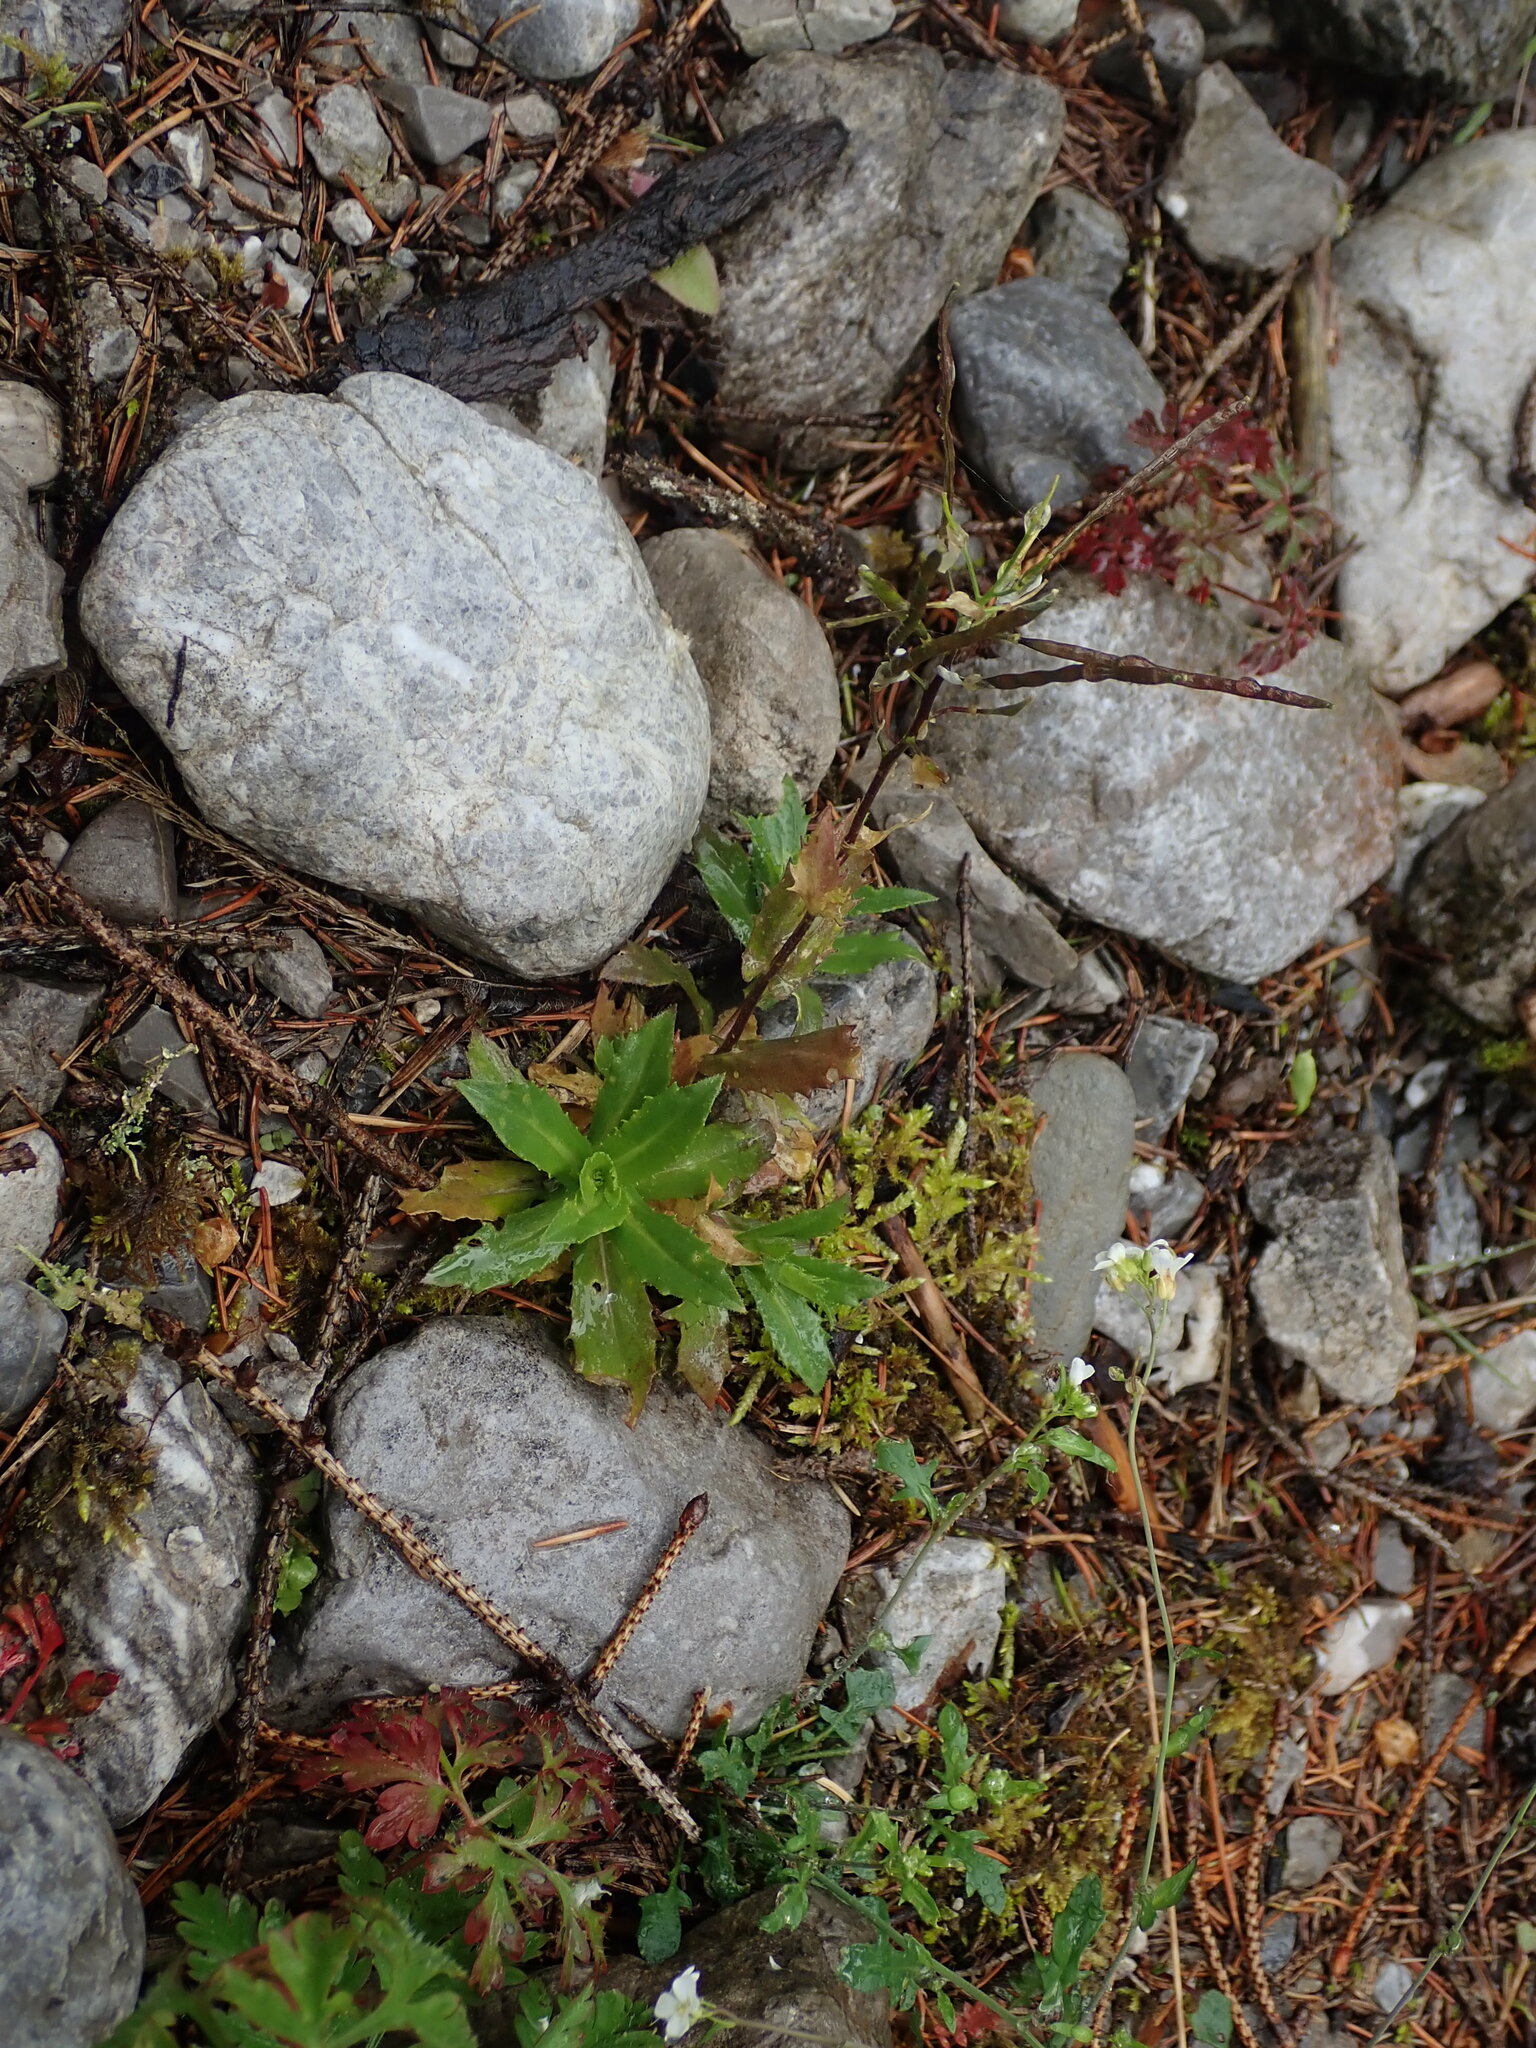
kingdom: Plantae
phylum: Tracheophyta
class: Magnoliopsida
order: Brassicales
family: Brassicaceae
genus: Arabis
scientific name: Arabis alpina
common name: Alpine rock-cress
